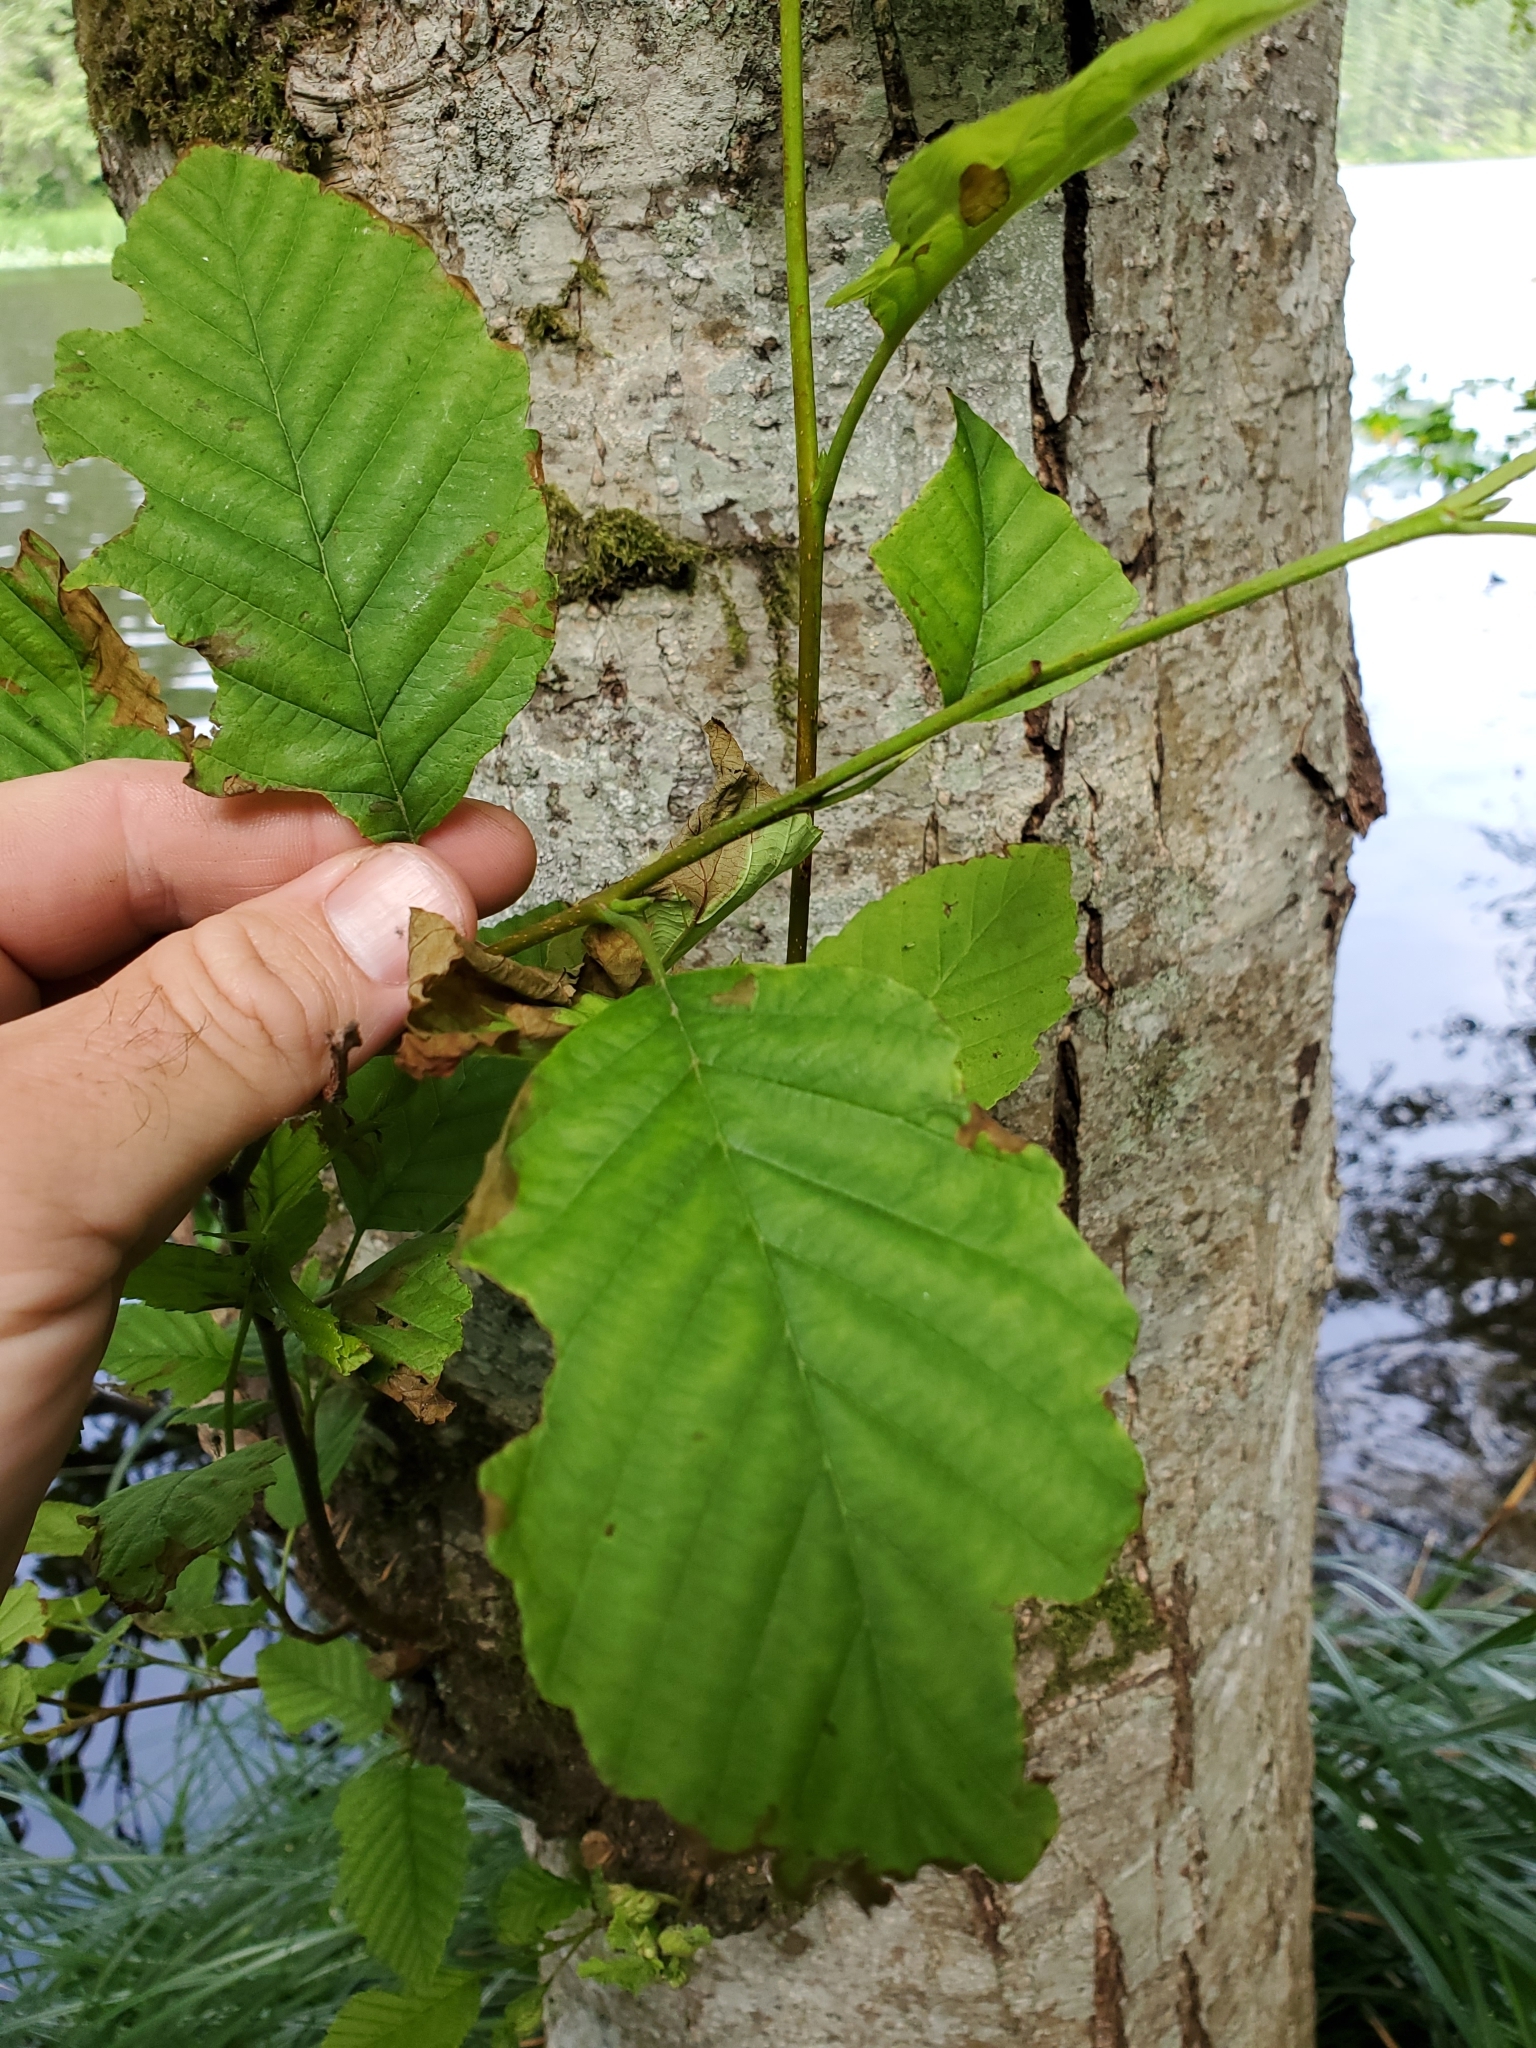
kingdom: Plantae
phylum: Tracheophyta
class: Magnoliopsida
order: Fagales
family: Betulaceae
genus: Alnus
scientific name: Alnus rubra
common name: Red alder
